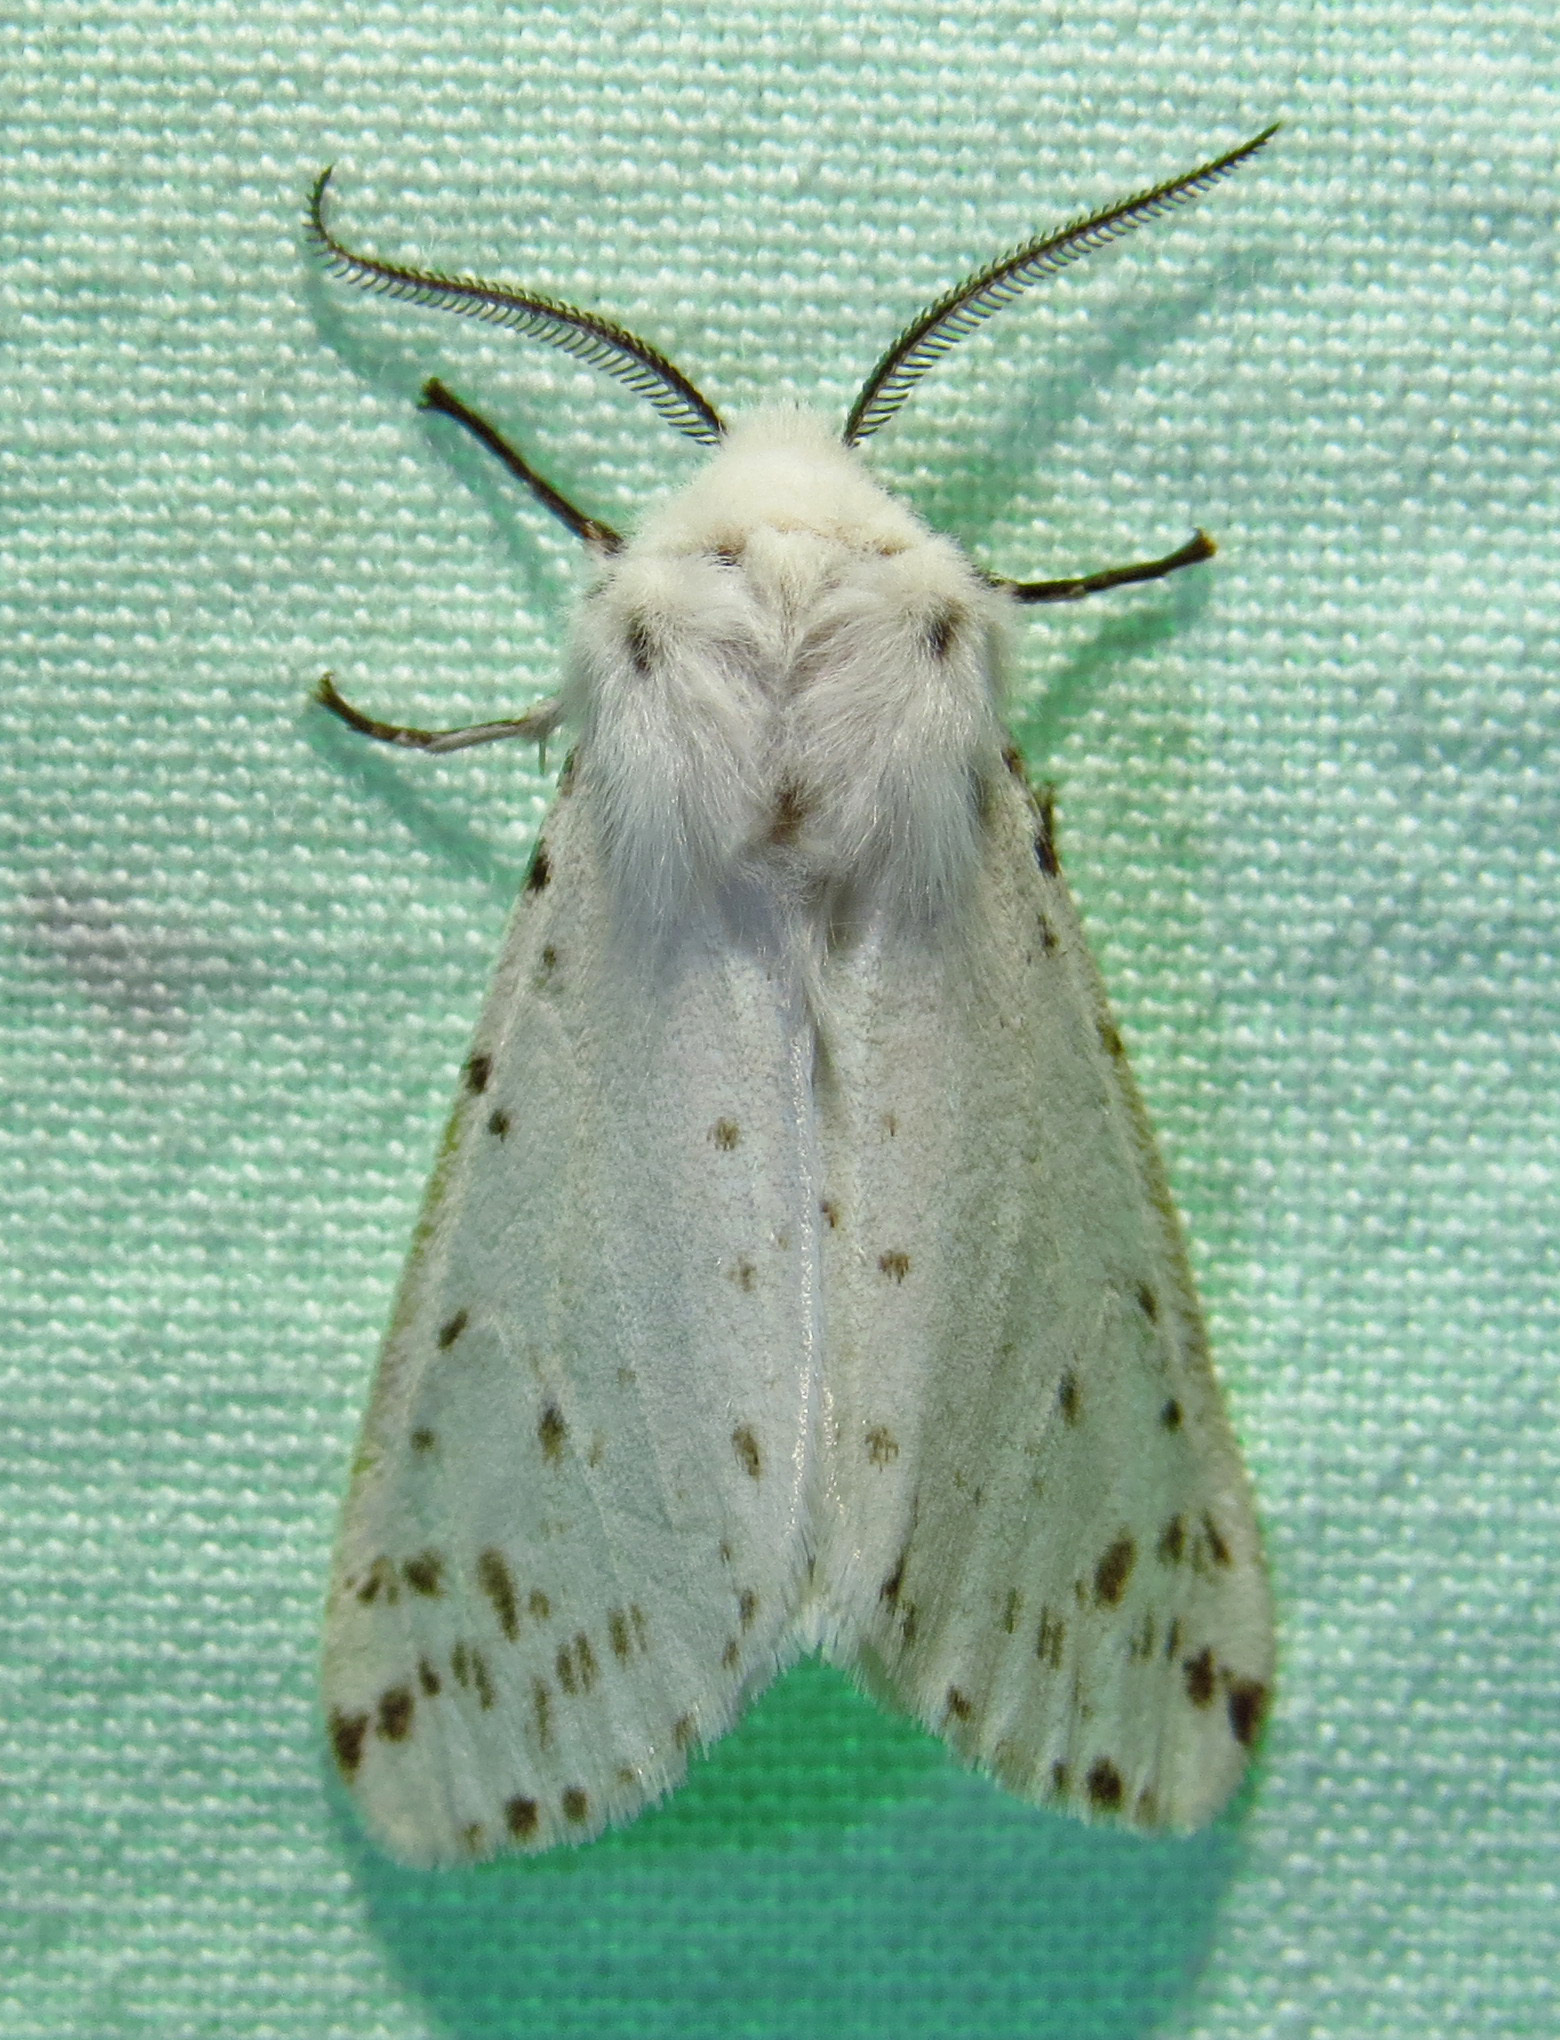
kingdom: Animalia
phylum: Arthropoda
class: Insecta
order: Lepidoptera
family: Erebidae
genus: Hyphantria
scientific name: Hyphantria cunea
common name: American white moth
